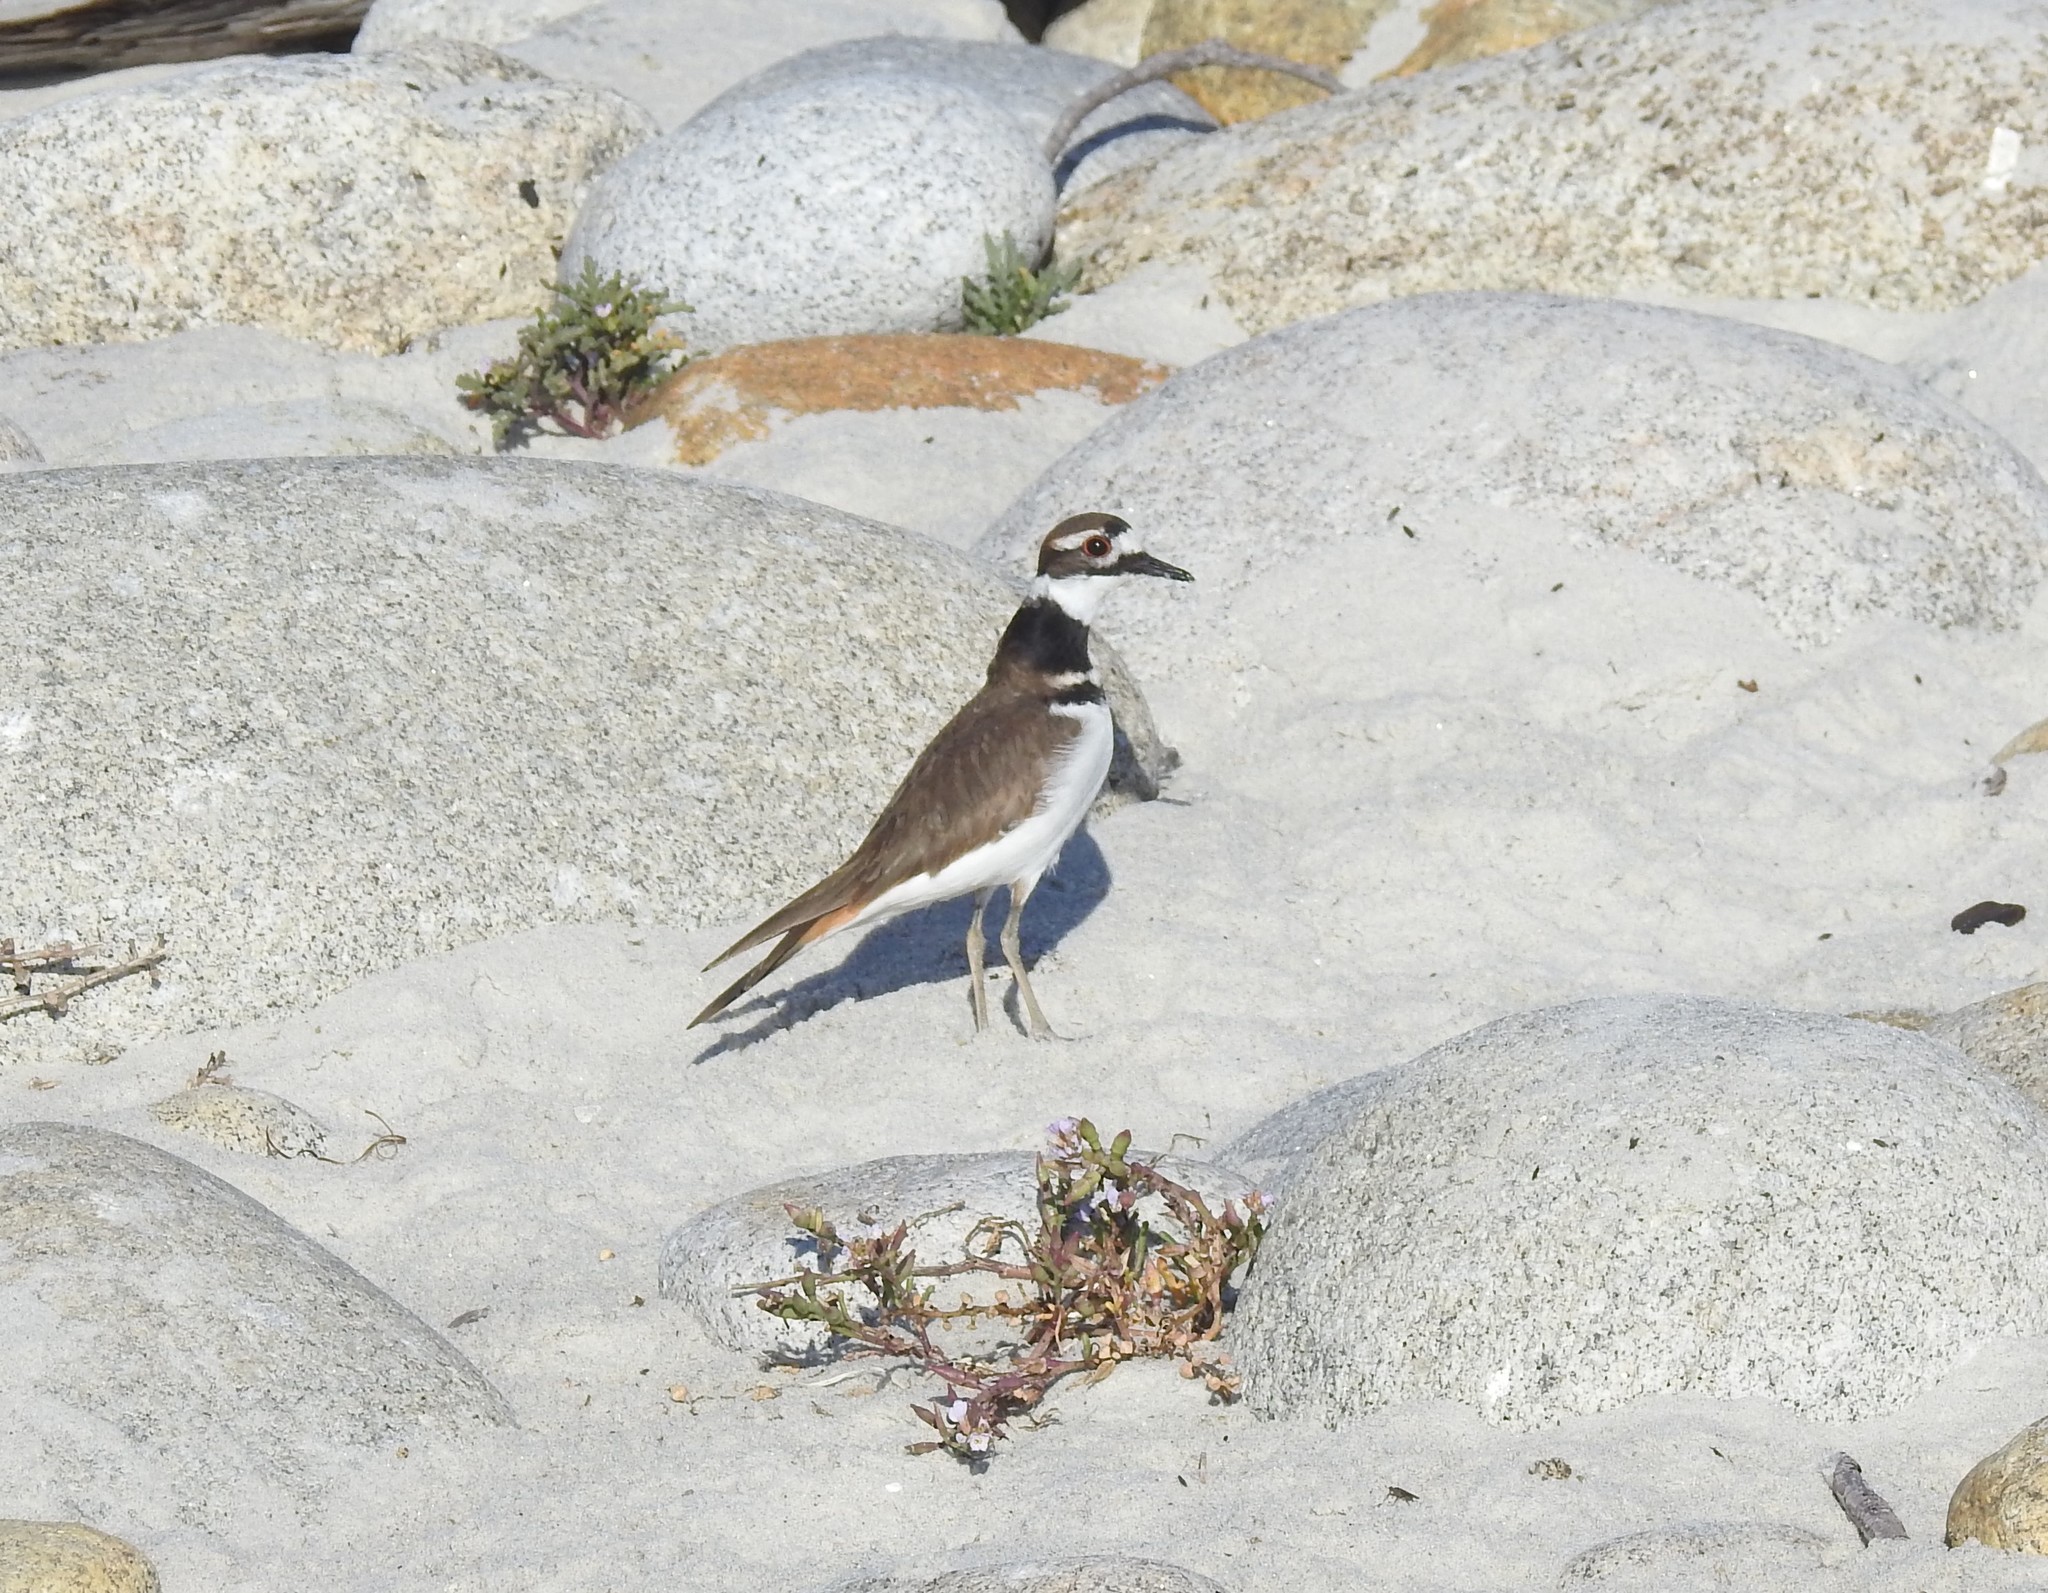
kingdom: Animalia
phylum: Chordata
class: Aves
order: Charadriiformes
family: Charadriidae
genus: Charadrius
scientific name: Charadrius vociferus
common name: Killdeer
